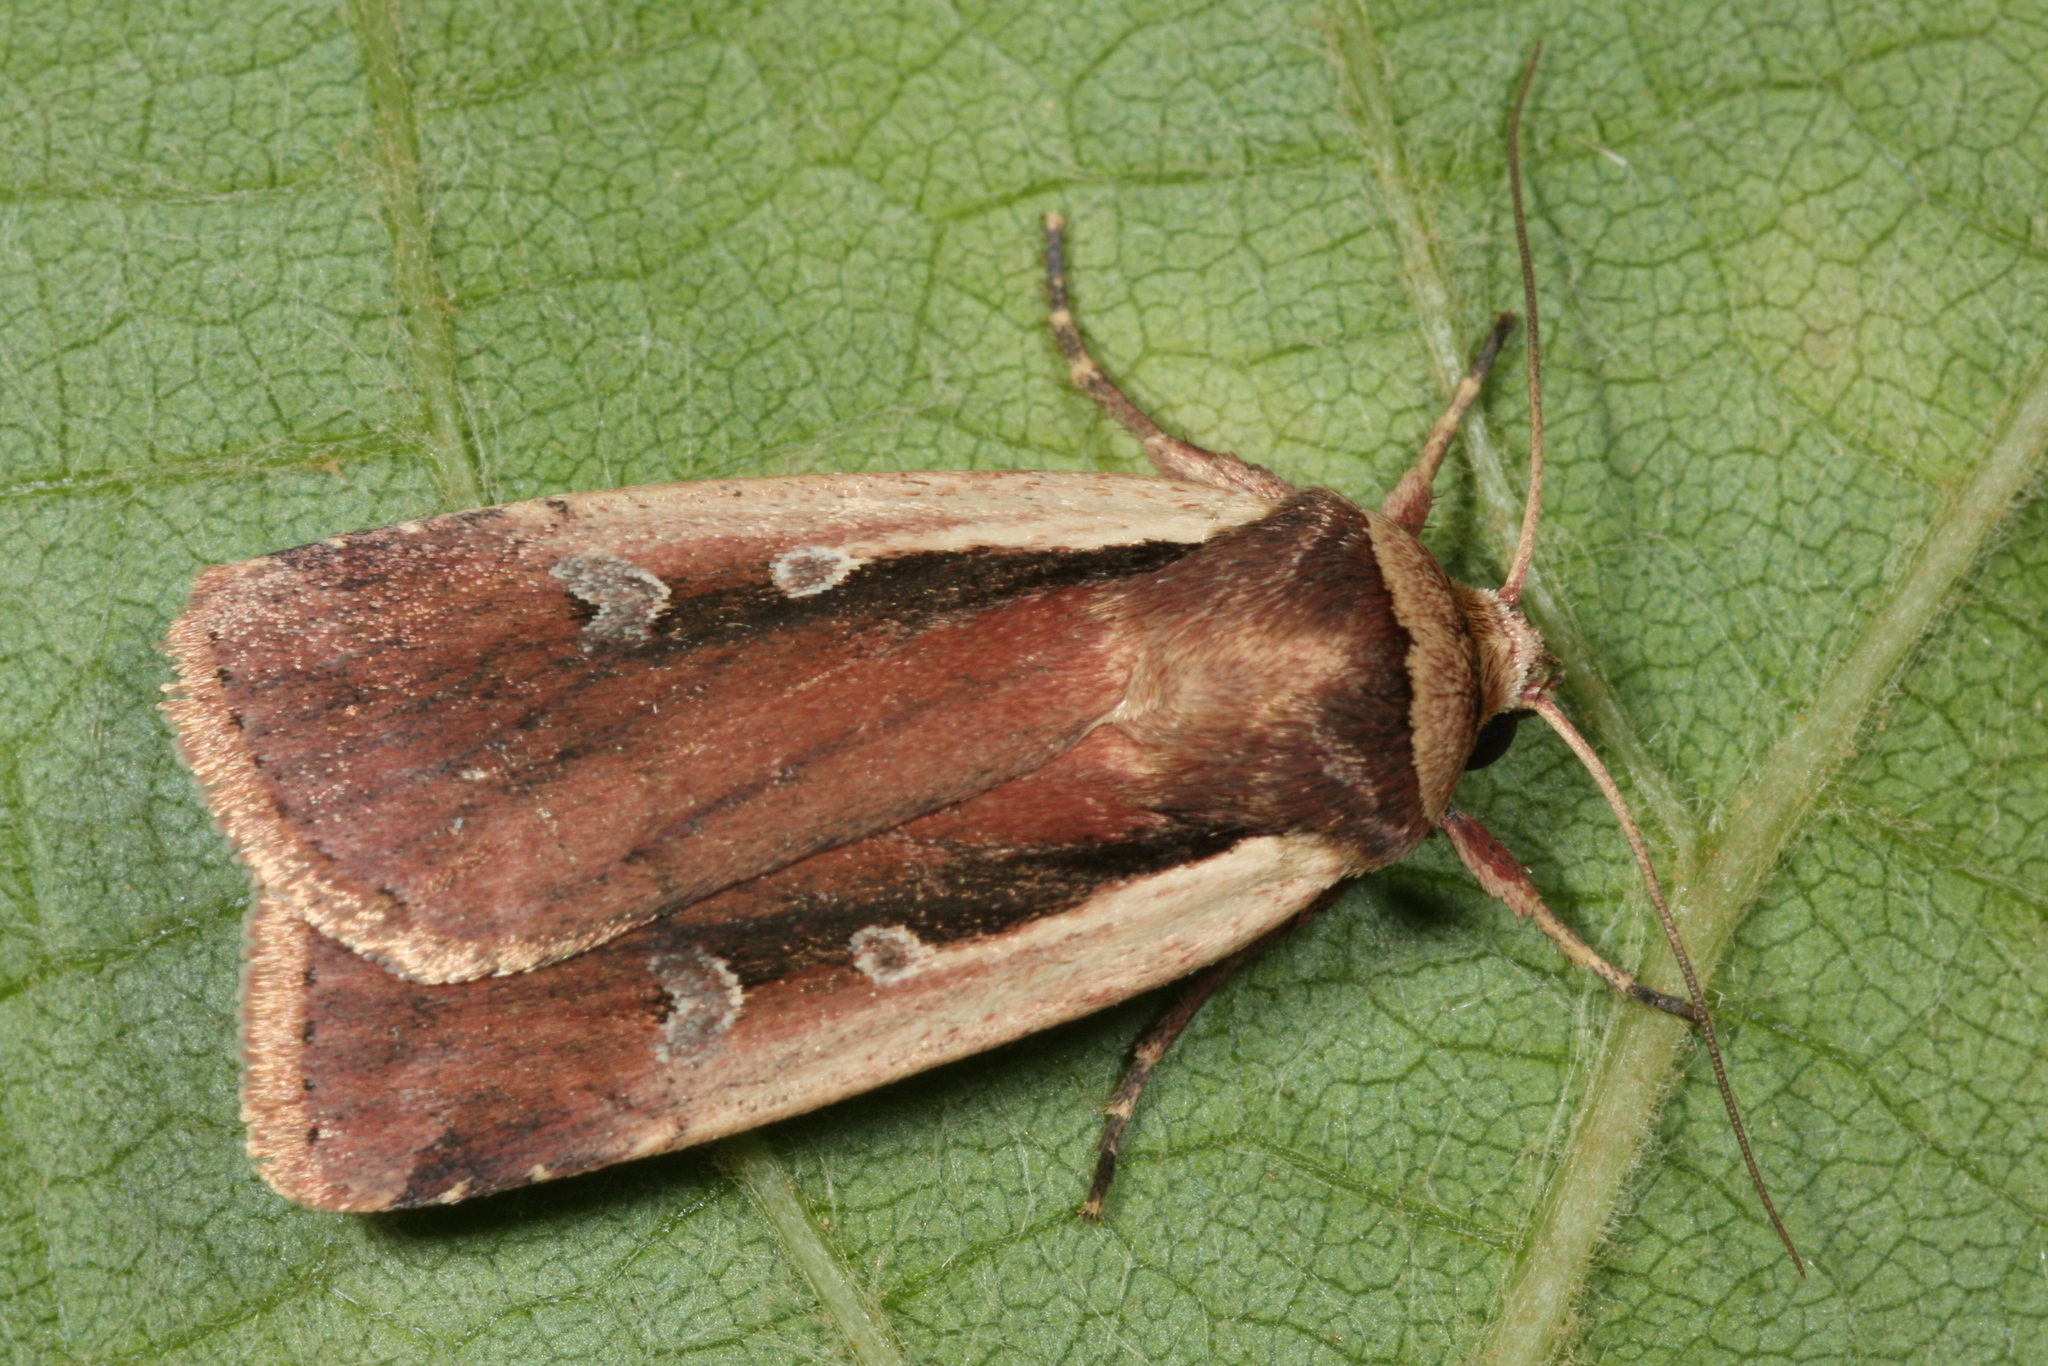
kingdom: Animalia
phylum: Arthropoda
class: Insecta
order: Lepidoptera
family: Noctuidae
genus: Ochropleura
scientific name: Ochropleura plecta
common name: Flame shoulder
